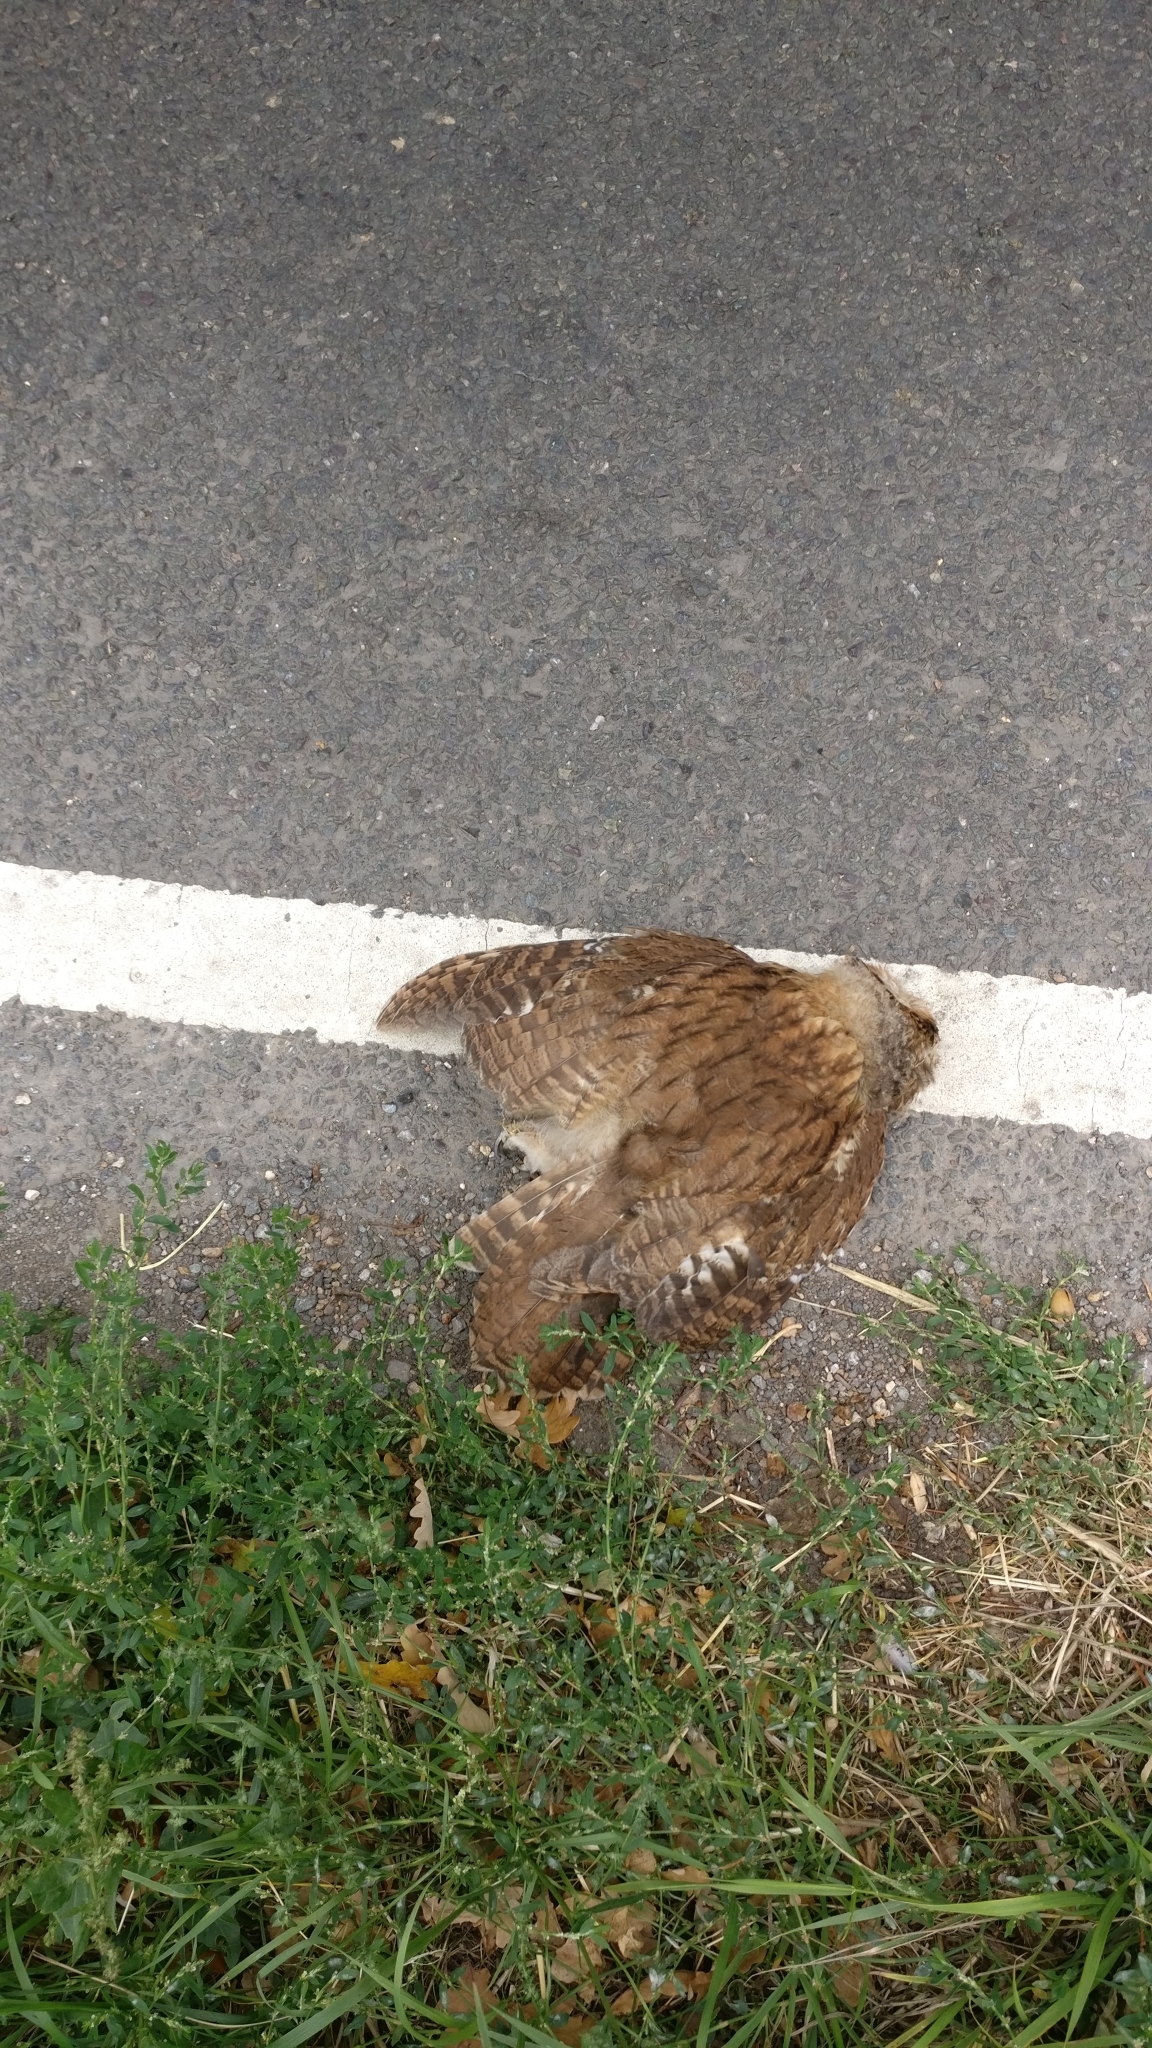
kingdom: Animalia
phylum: Chordata
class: Aves
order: Strigiformes
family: Strigidae
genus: Strix
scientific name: Strix aluco
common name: Tawny owl
